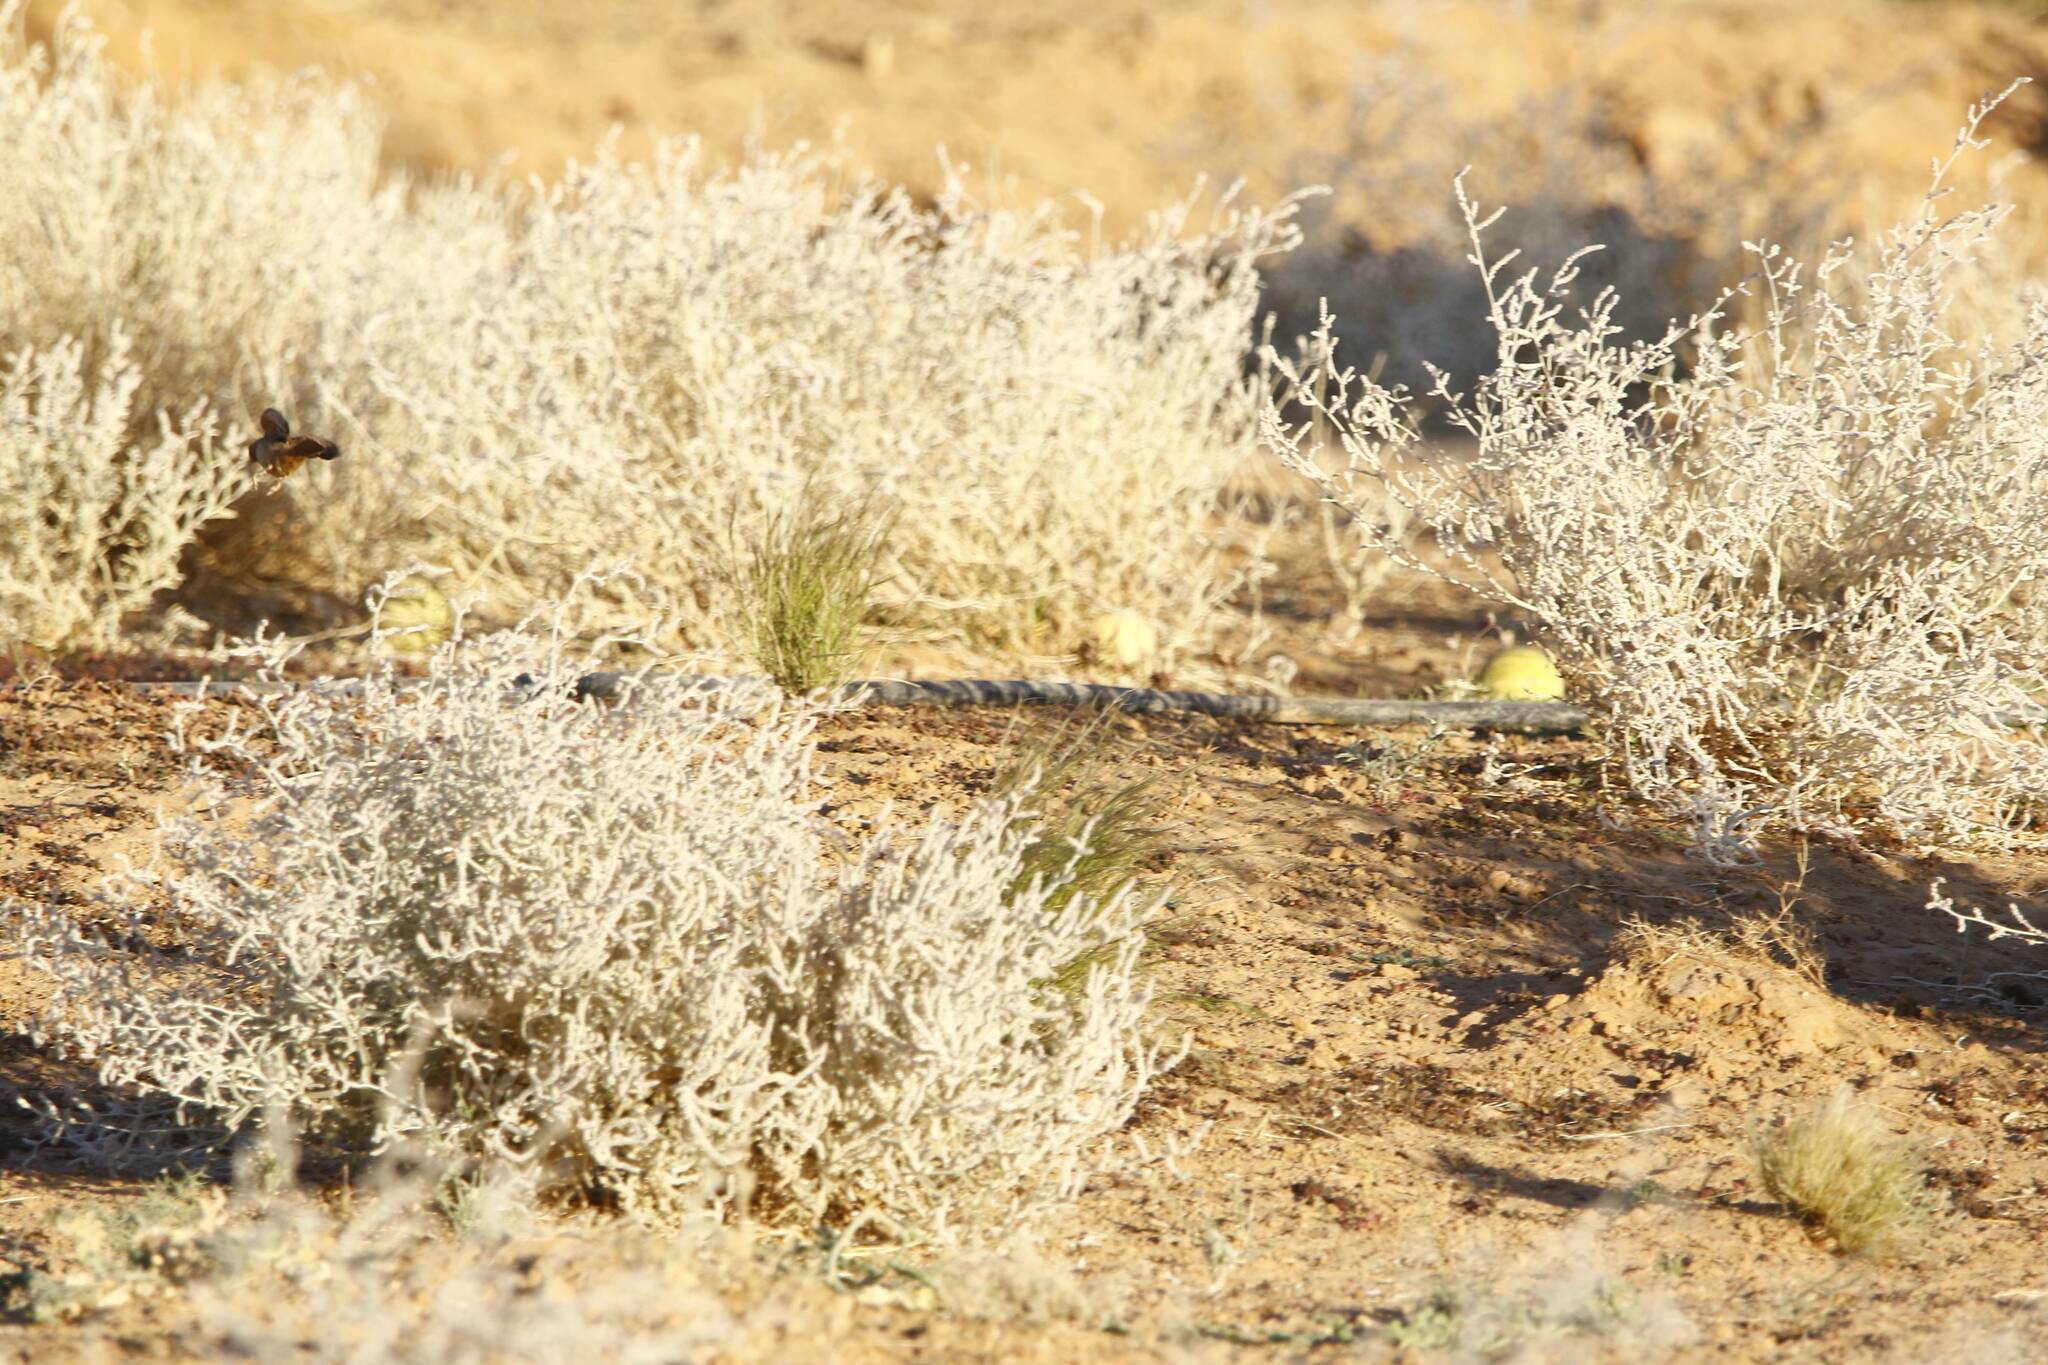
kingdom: Animalia
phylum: Chordata
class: Aves
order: Passeriformes
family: Emberizidae
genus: Emberiza
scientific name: Emberiza sahari
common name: House bunting
